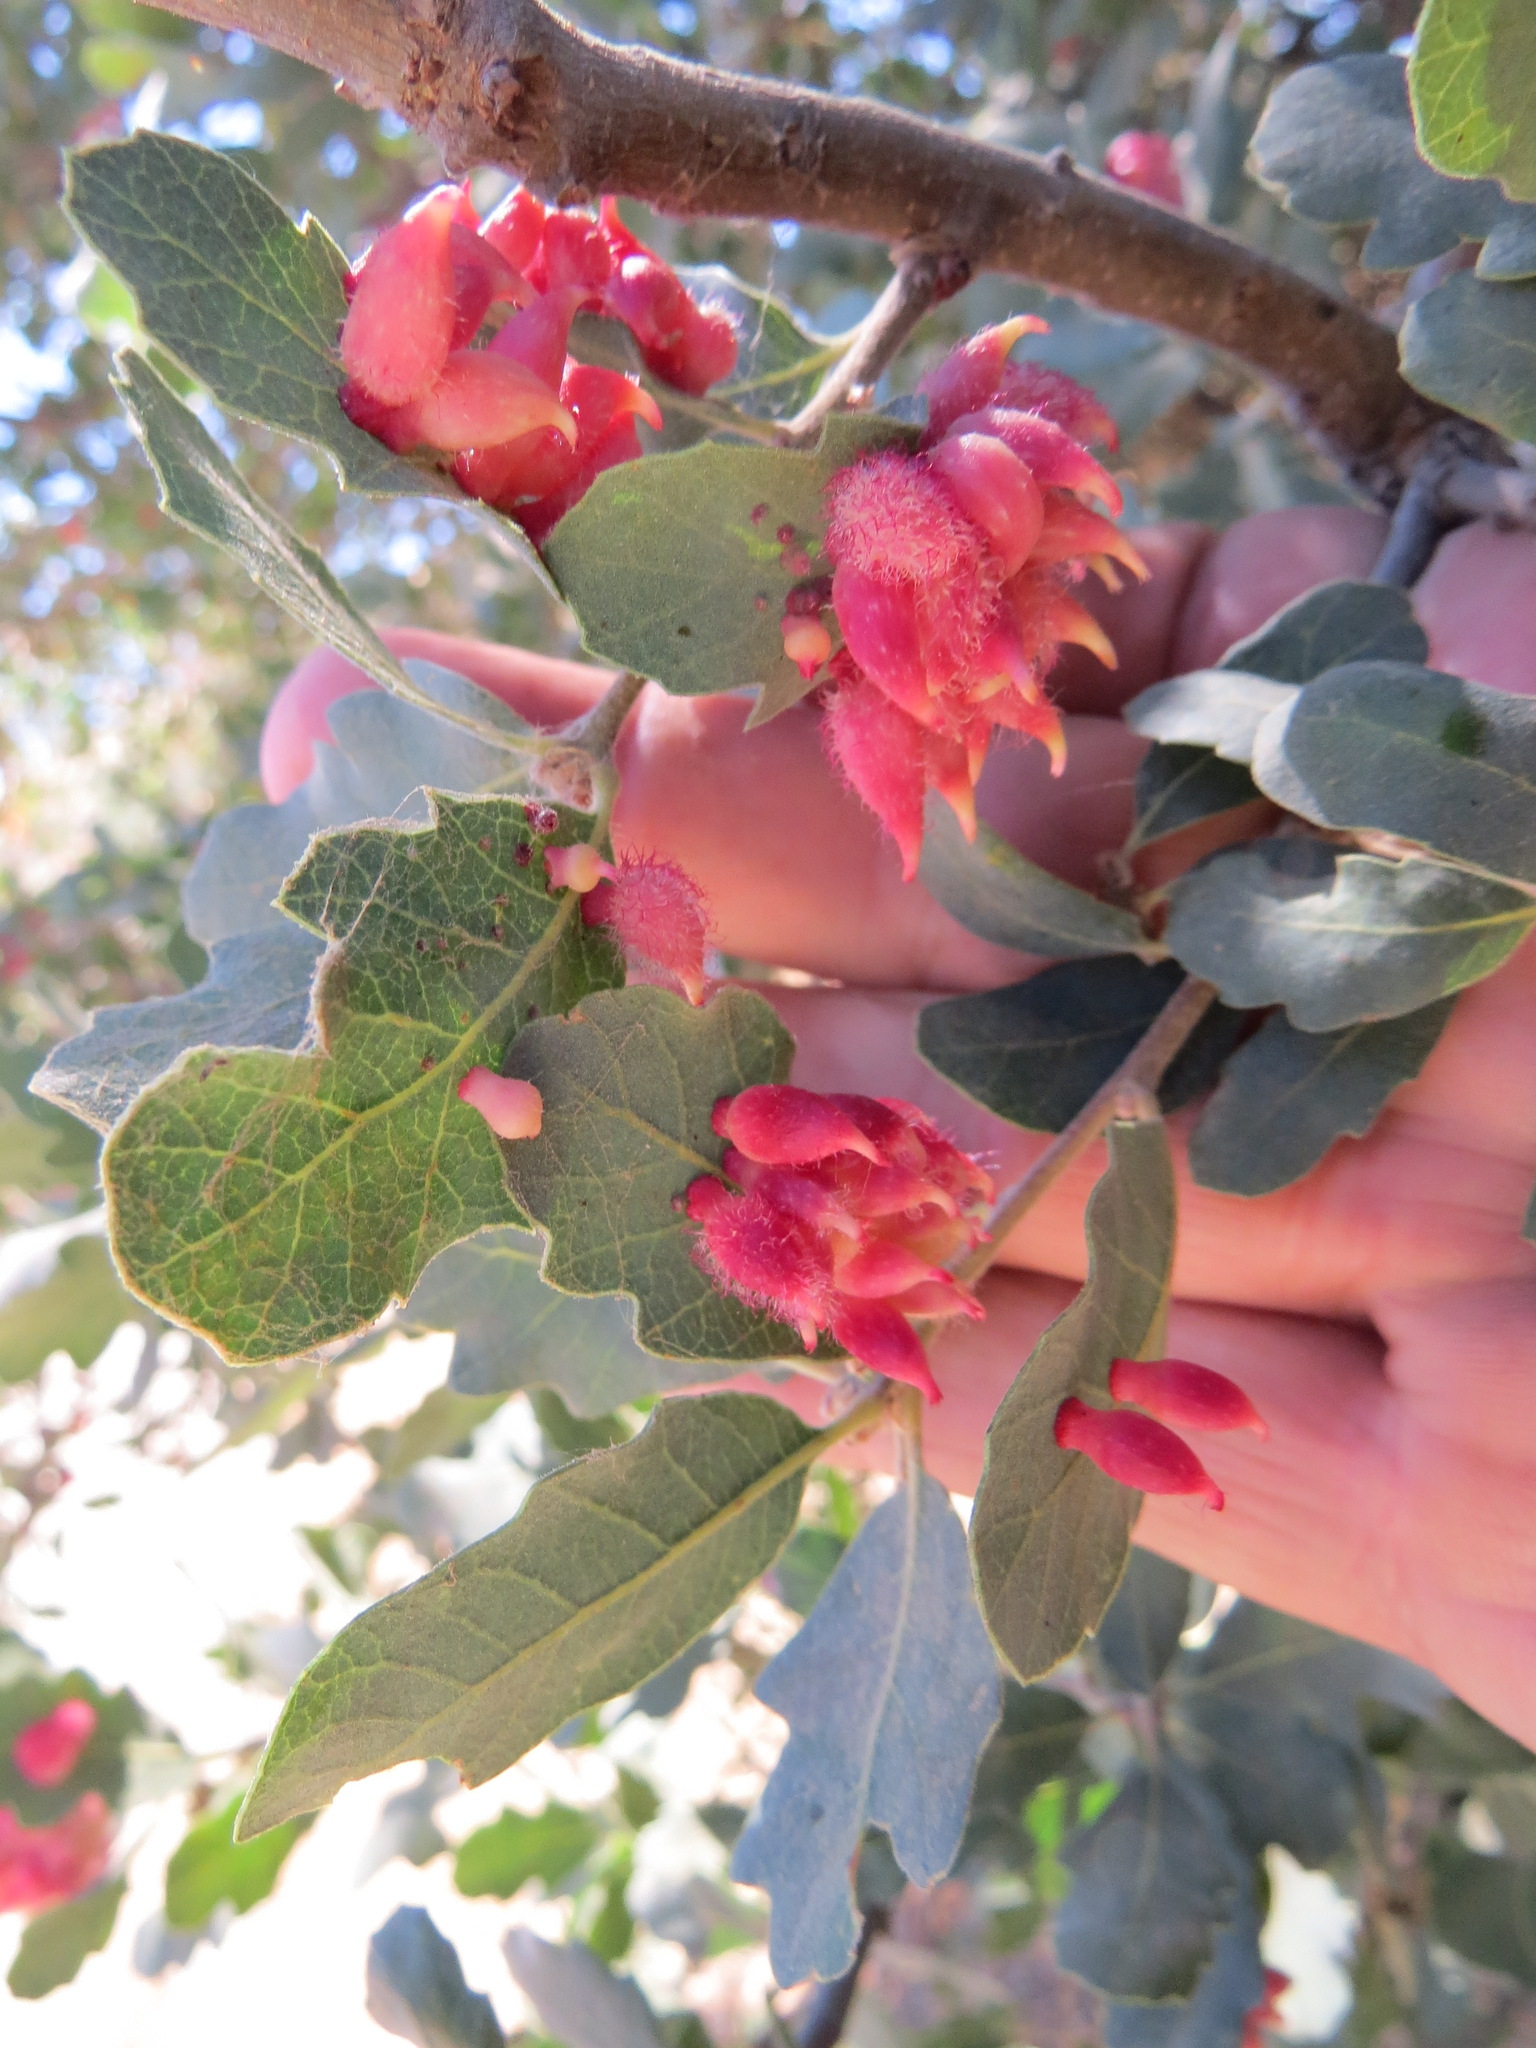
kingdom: Animalia
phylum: Arthropoda
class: Insecta
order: Hymenoptera
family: Cynipidae
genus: Andricus
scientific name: Andricus
